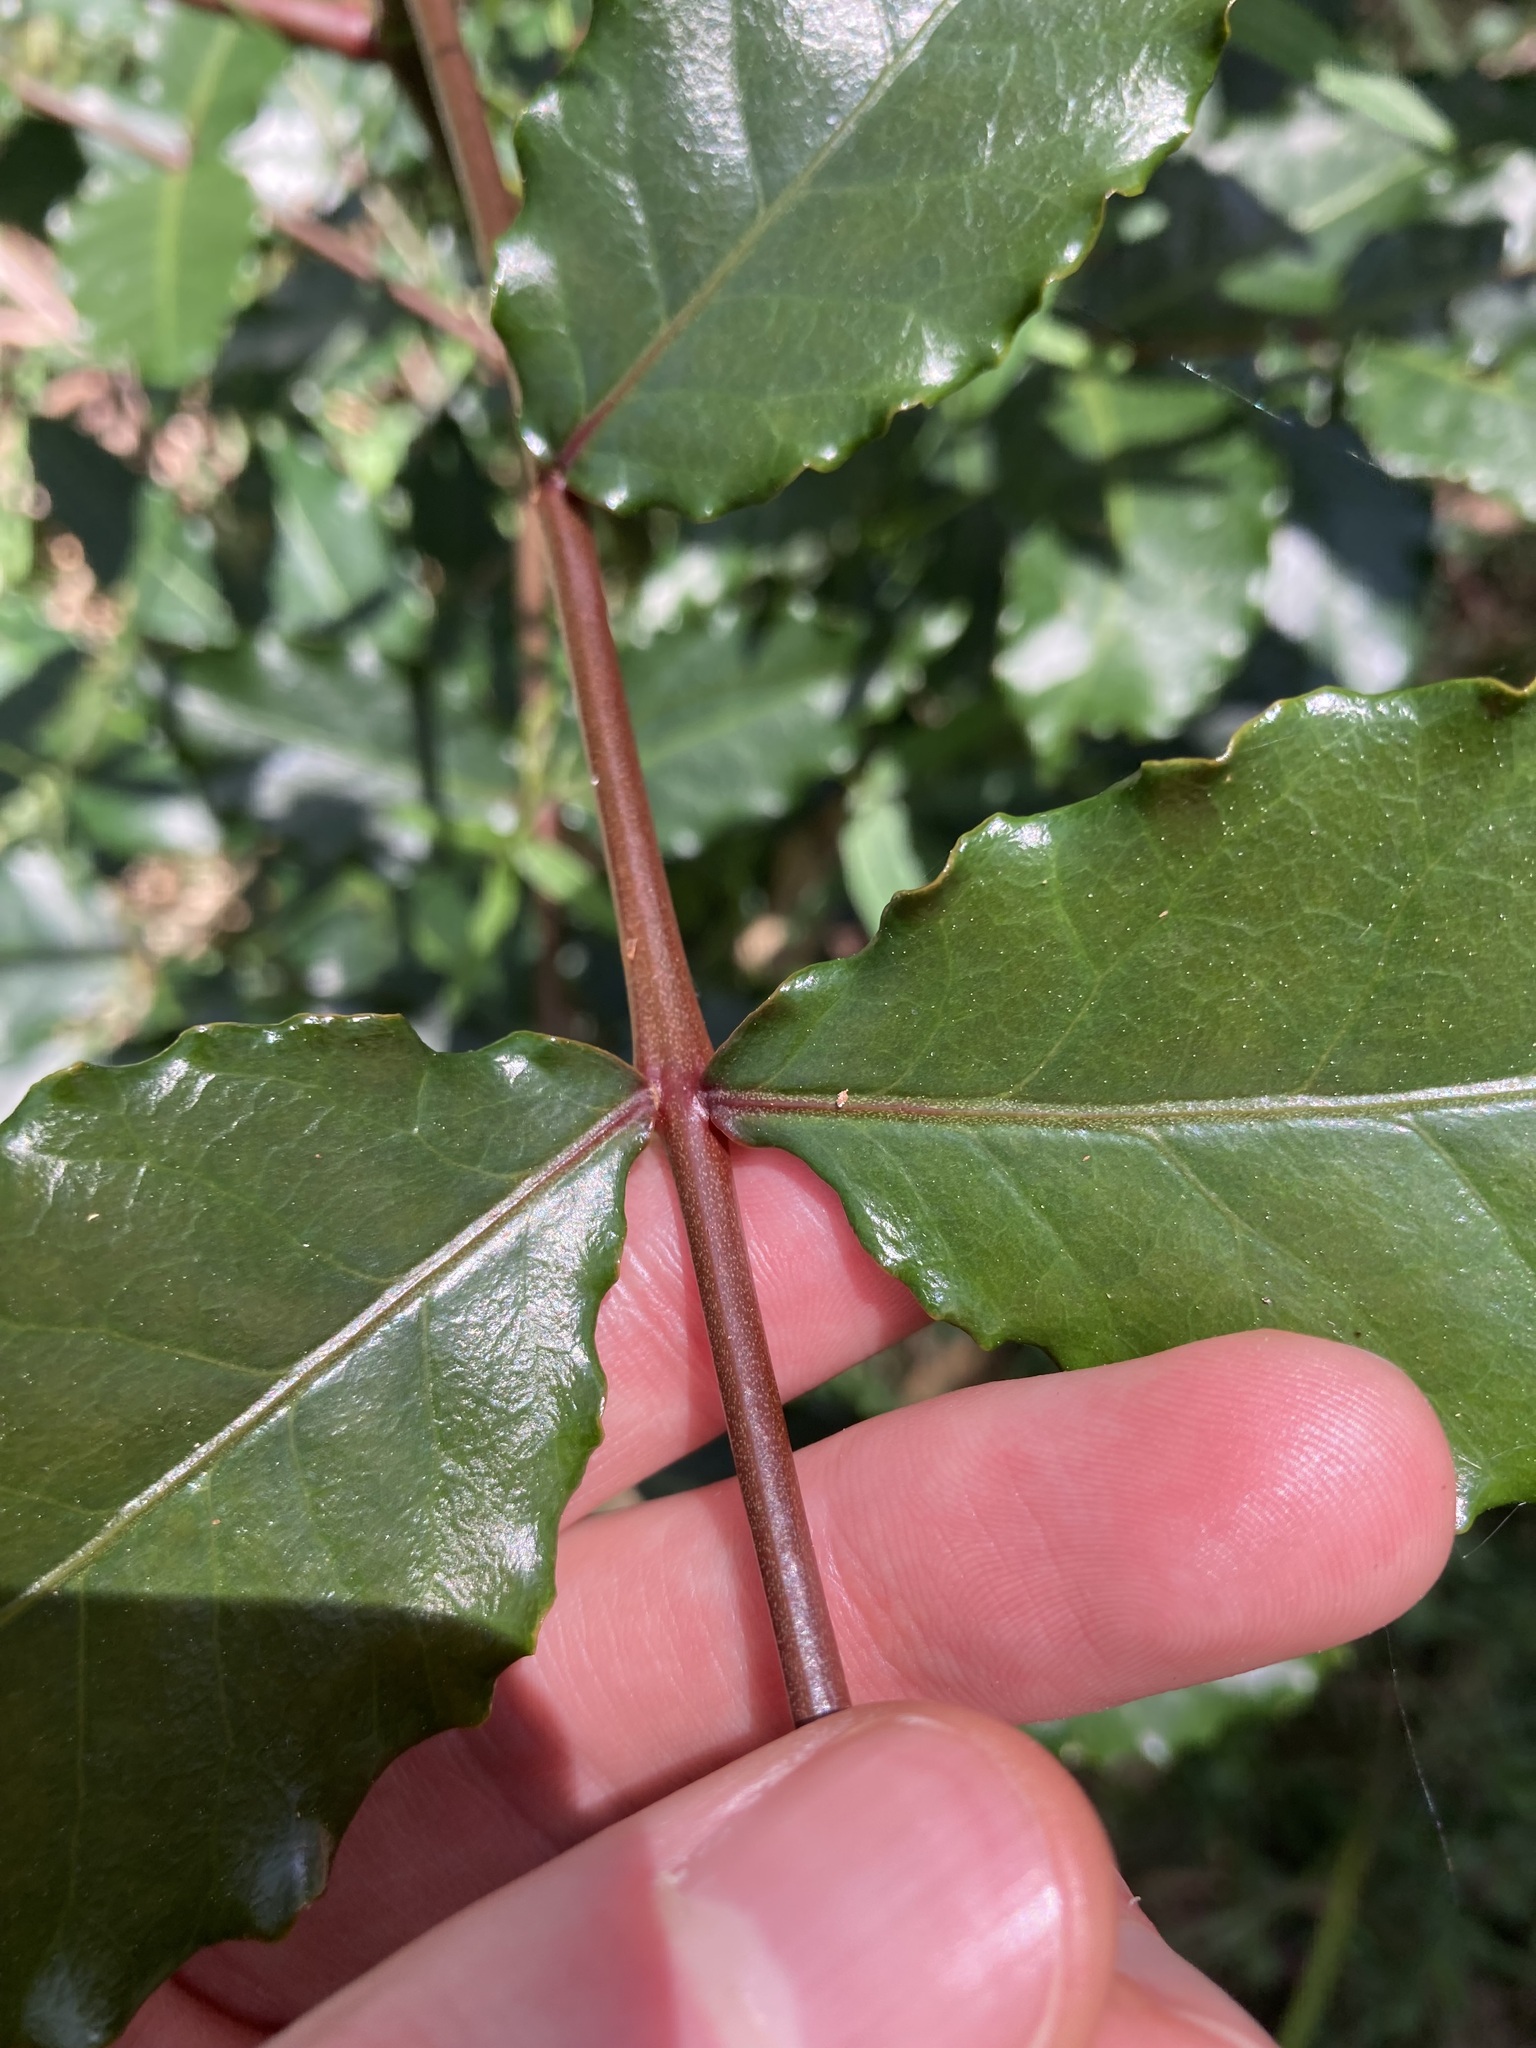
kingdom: Plantae
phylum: Tracheophyta
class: Magnoliopsida
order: Sapindales
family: Anacardiaceae
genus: Harpephyllum
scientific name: Harpephyllum caffrum
